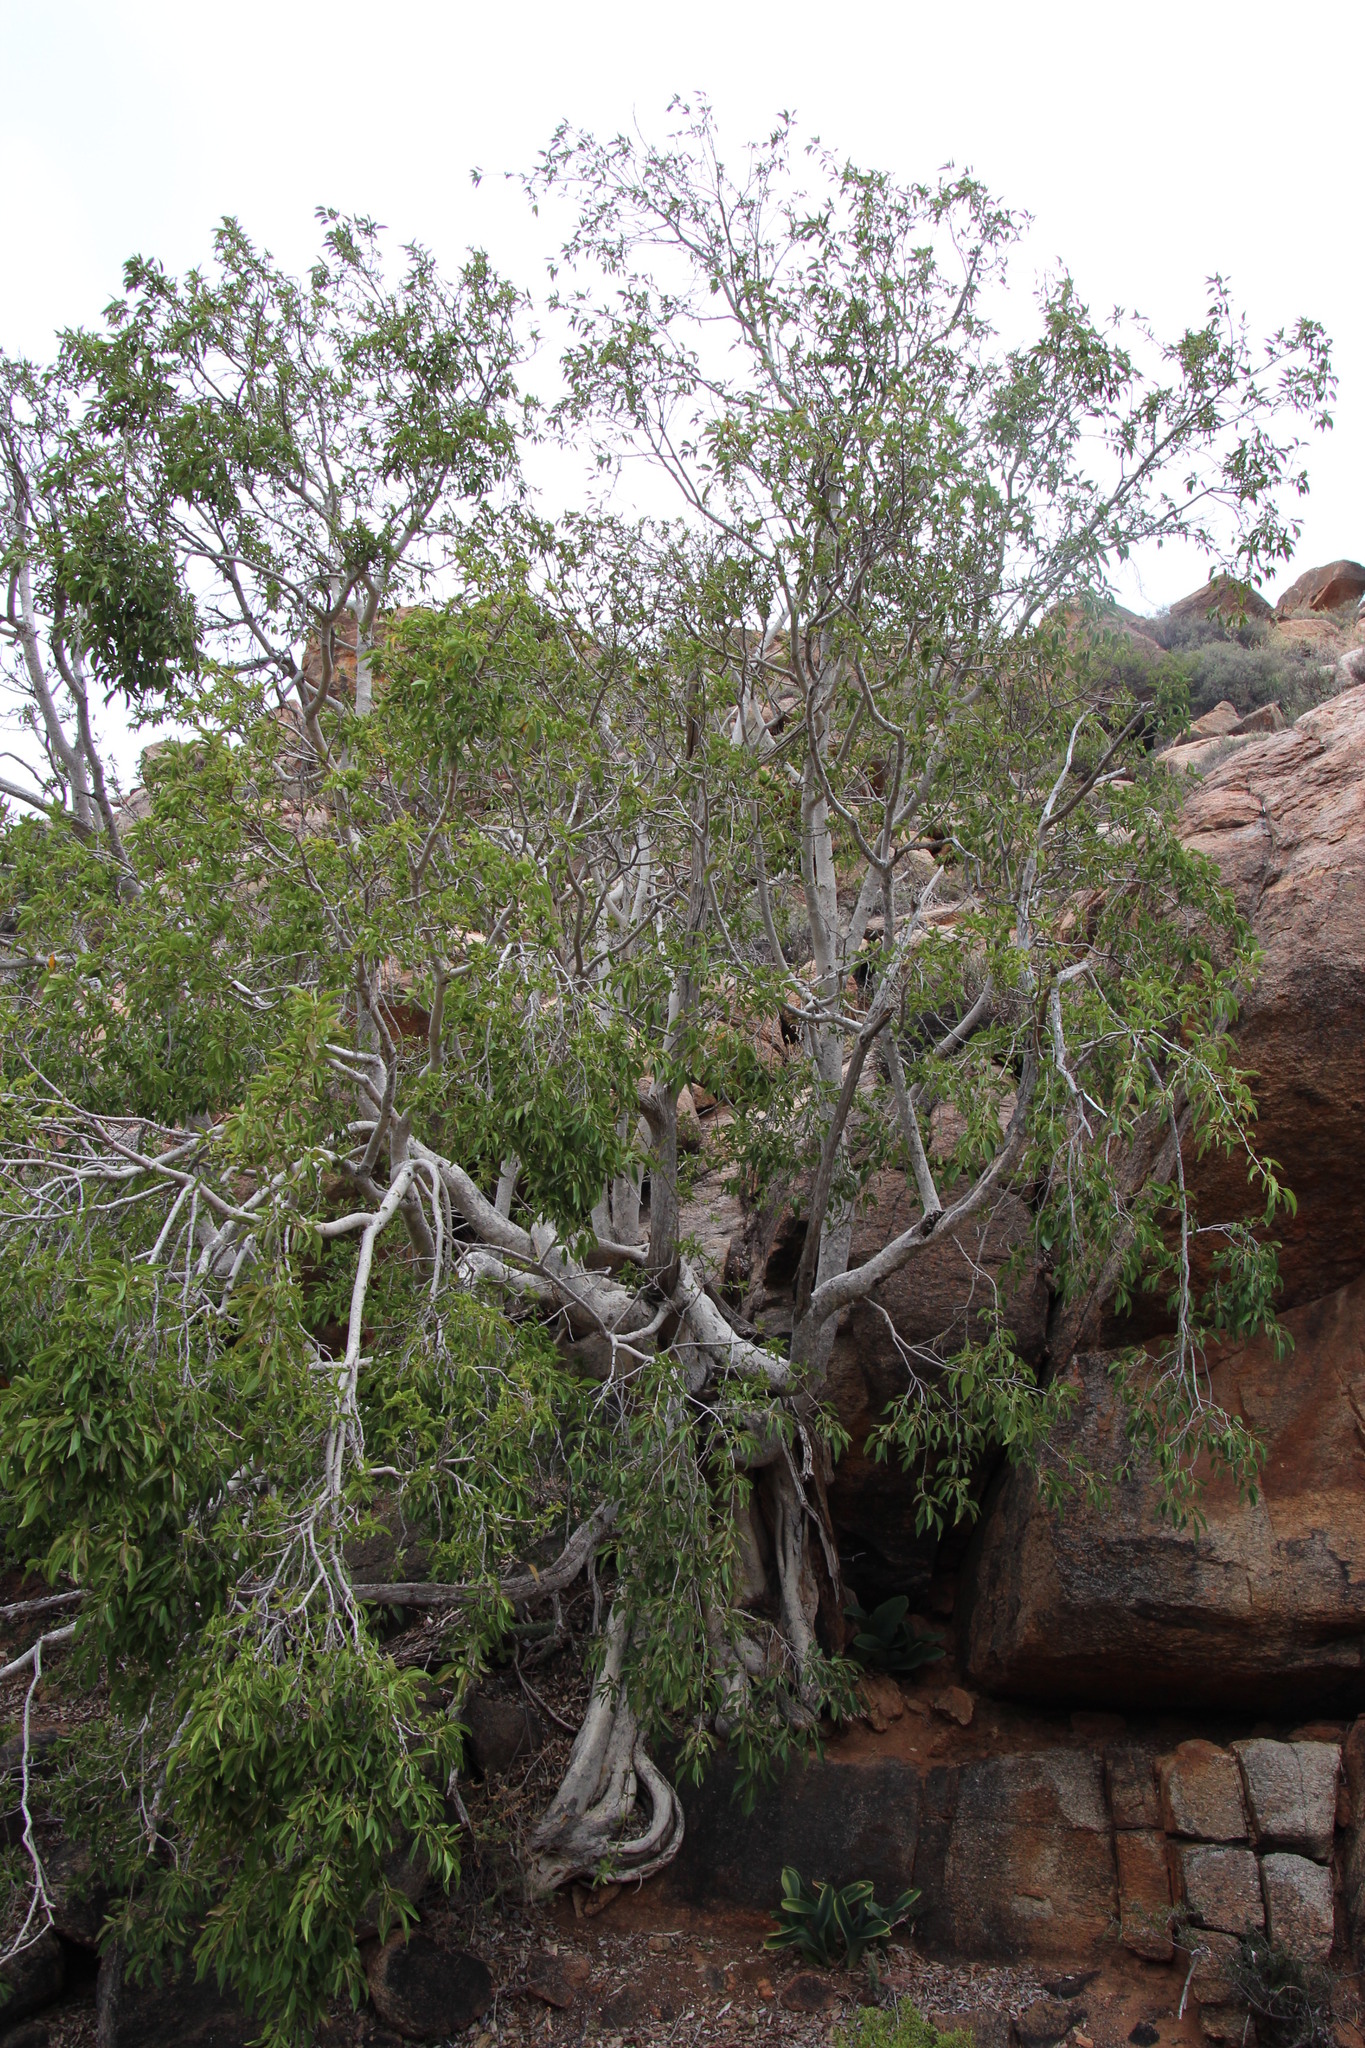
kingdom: Plantae
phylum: Tracheophyta
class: Magnoliopsida
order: Rosales
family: Moraceae
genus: Ficus
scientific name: Ficus cordata
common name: Namaqua rock fig
